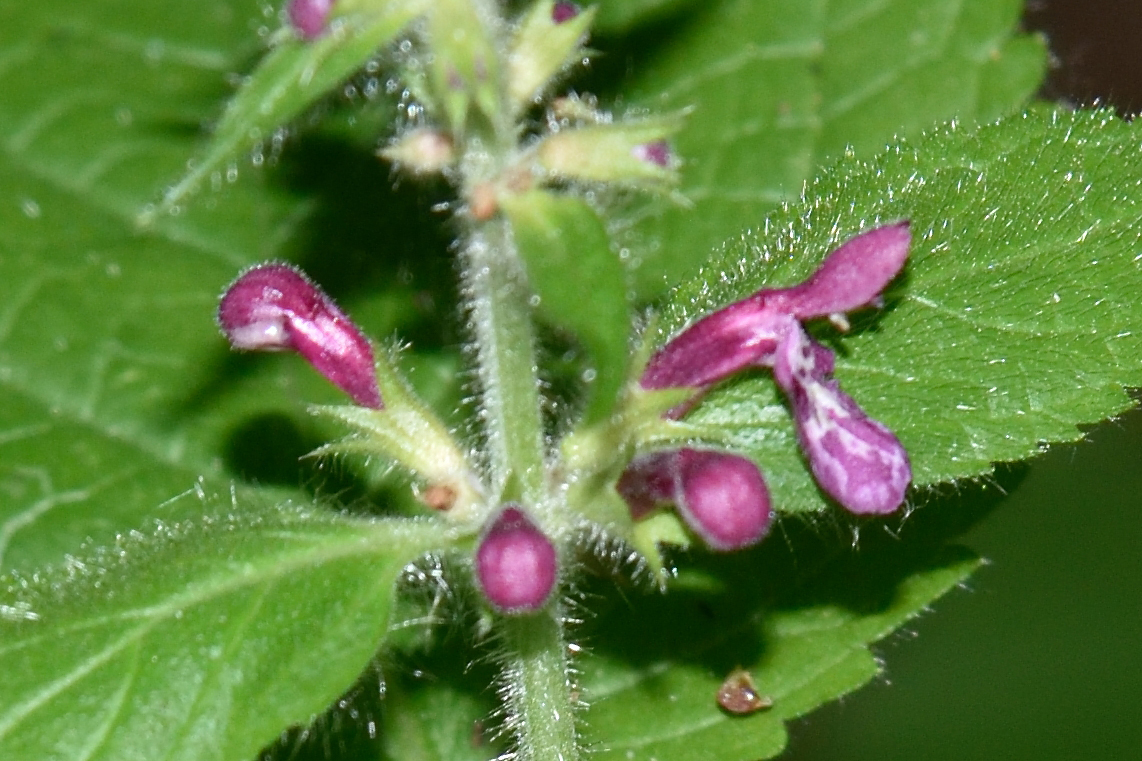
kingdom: Plantae
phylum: Tracheophyta
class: Magnoliopsida
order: Lamiales
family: Lamiaceae
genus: Stachys
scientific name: Stachys sylvatica
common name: Hedge woundwort
